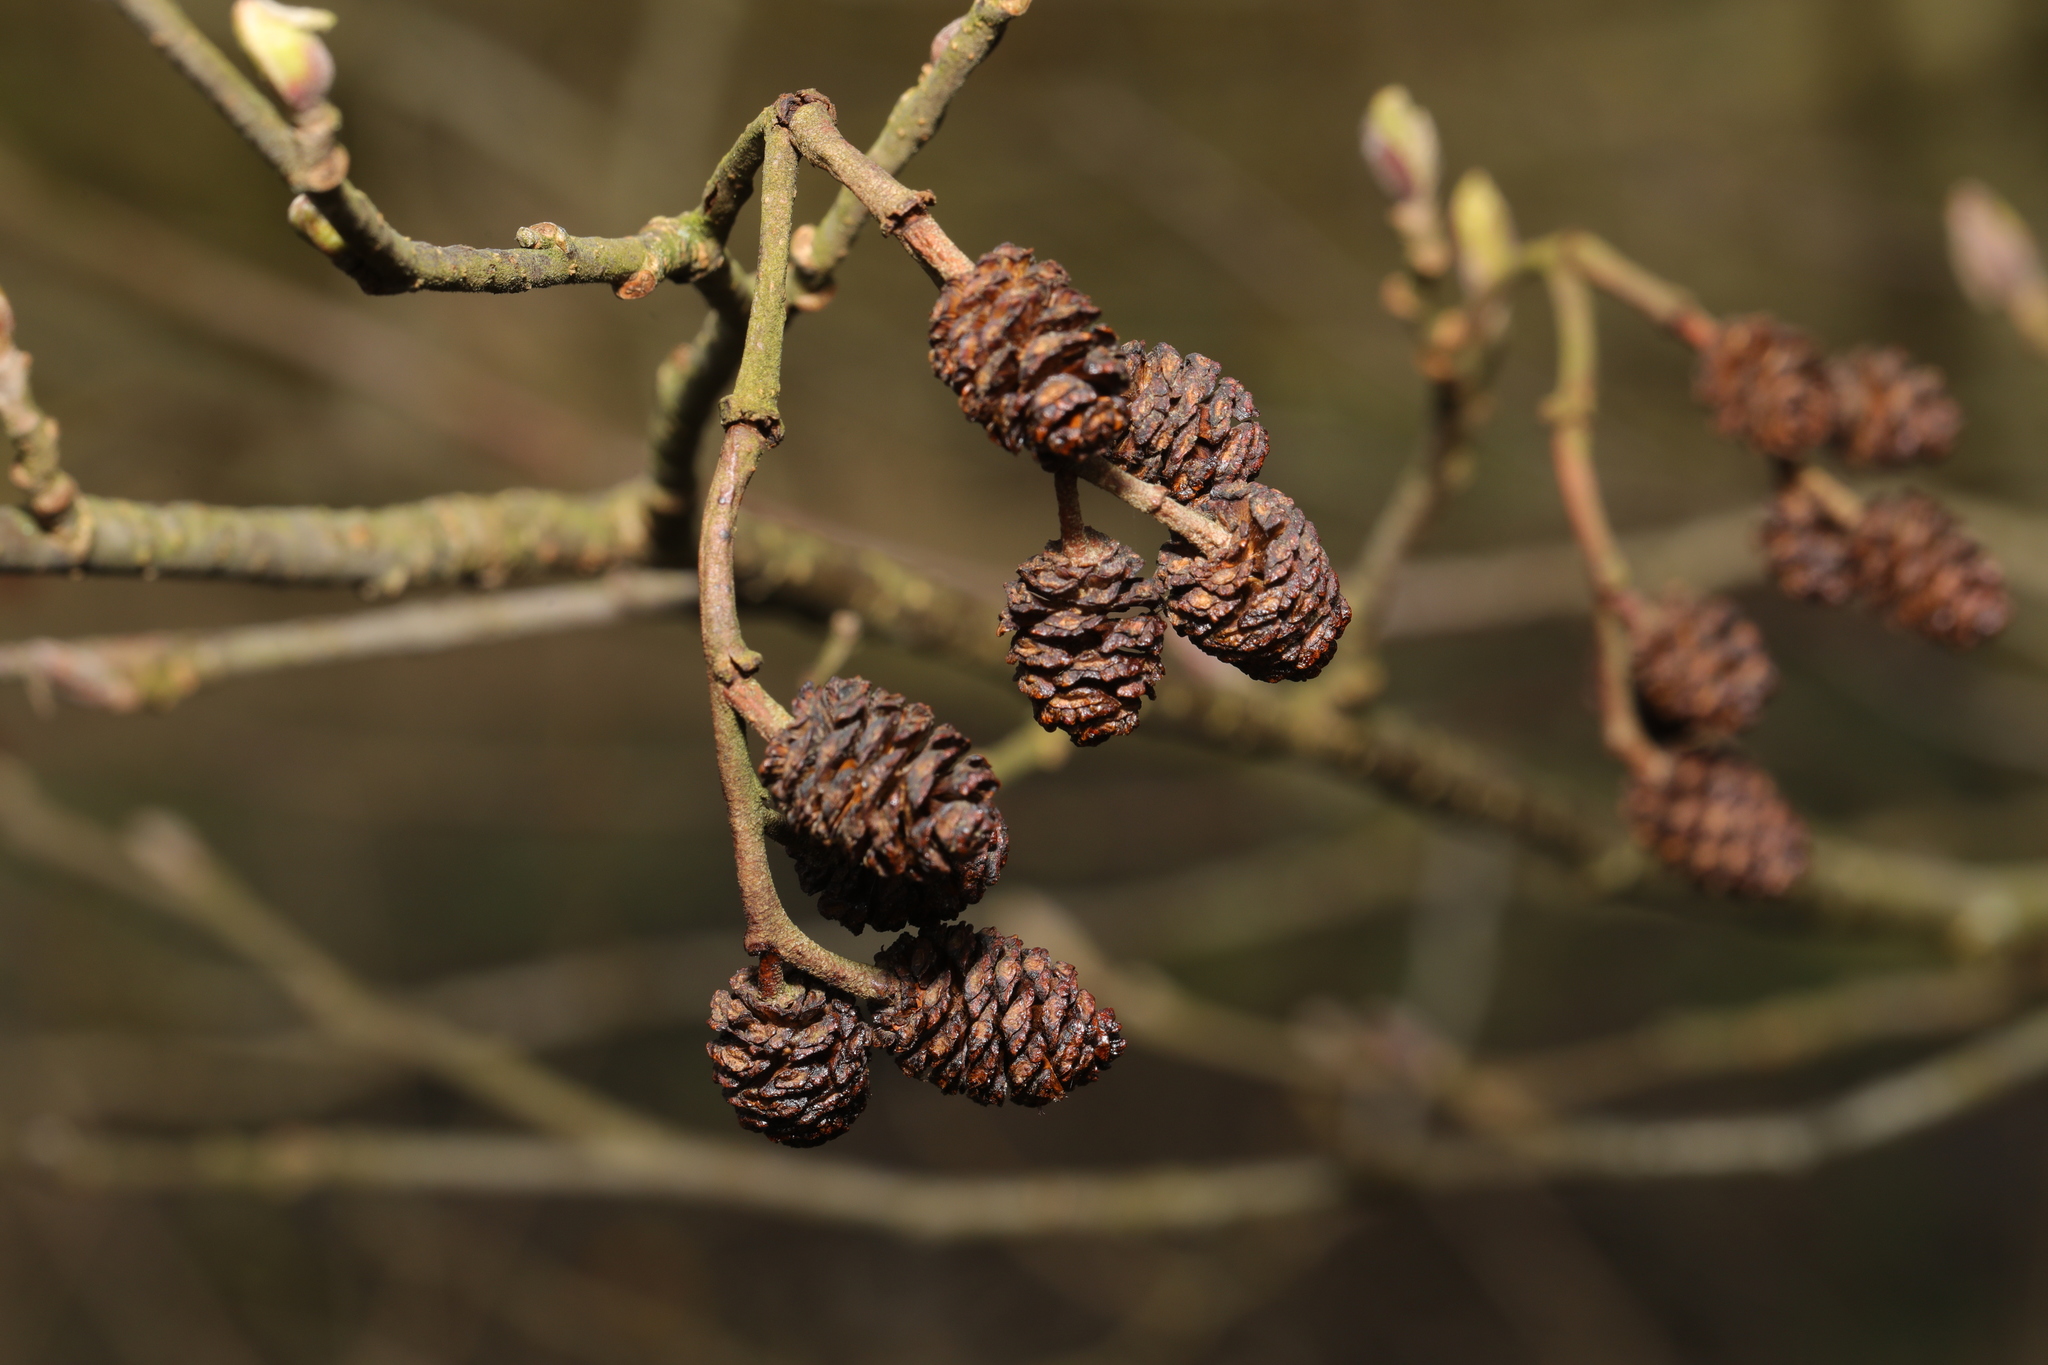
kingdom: Plantae
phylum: Tracheophyta
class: Magnoliopsida
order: Fagales
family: Betulaceae
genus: Alnus
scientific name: Alnus glutinosa
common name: Black alder
